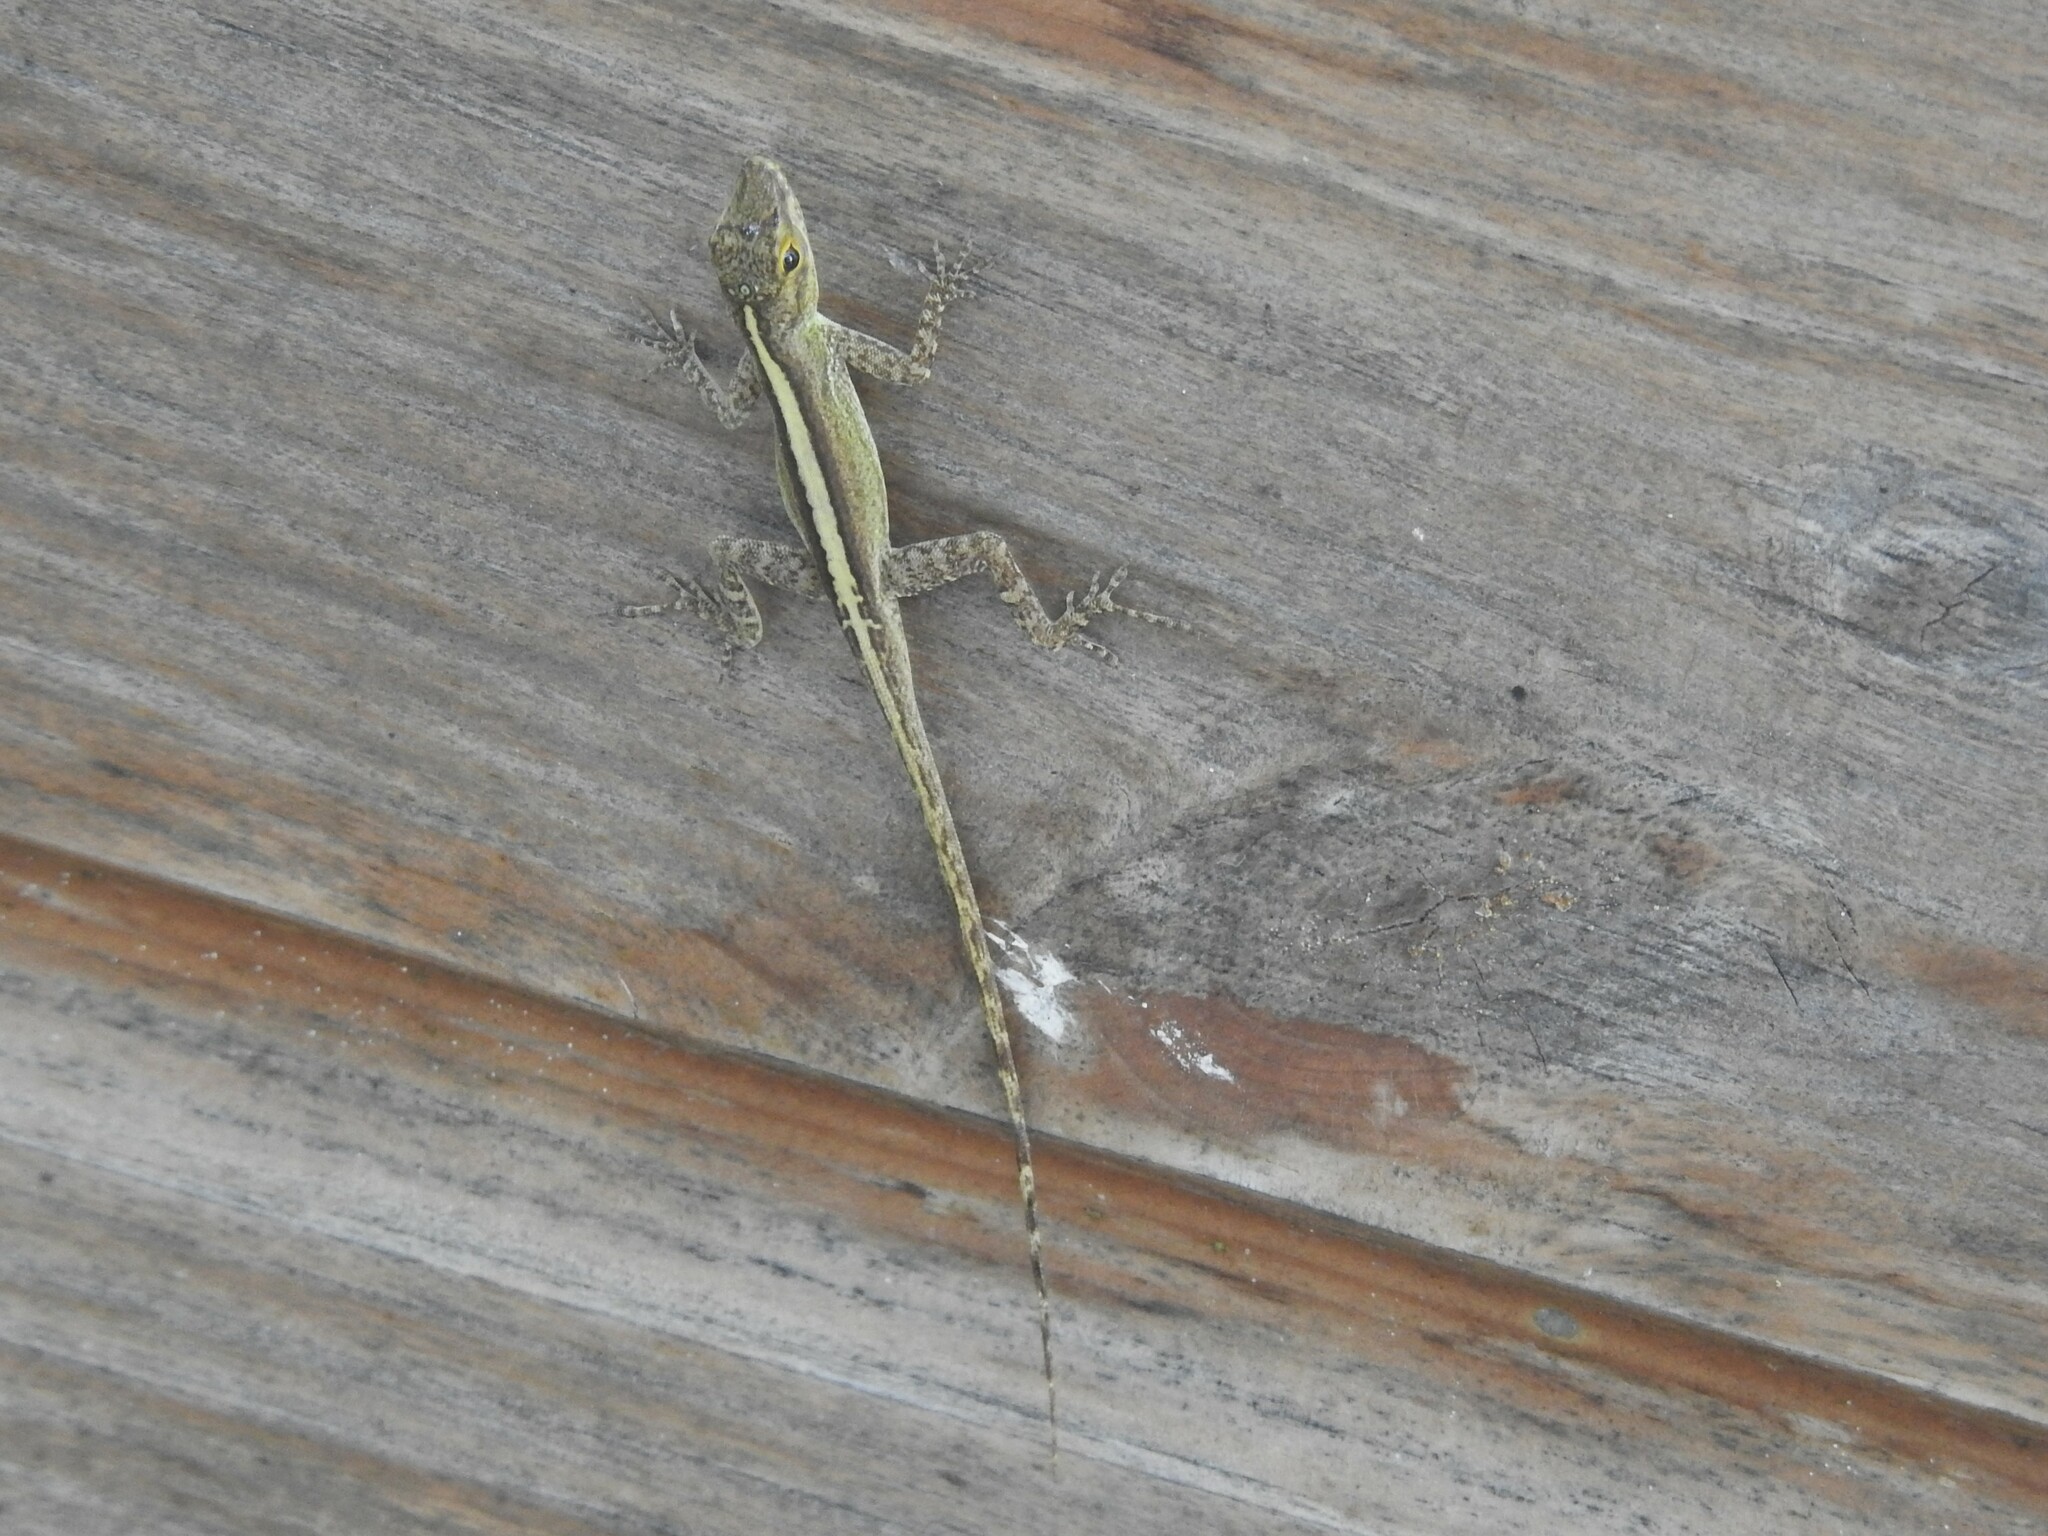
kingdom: Animalia
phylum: Chordata
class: Squamata
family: Dactyloidae
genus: Anolis
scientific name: Anolis marmoratus
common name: Guadeloupe anole
